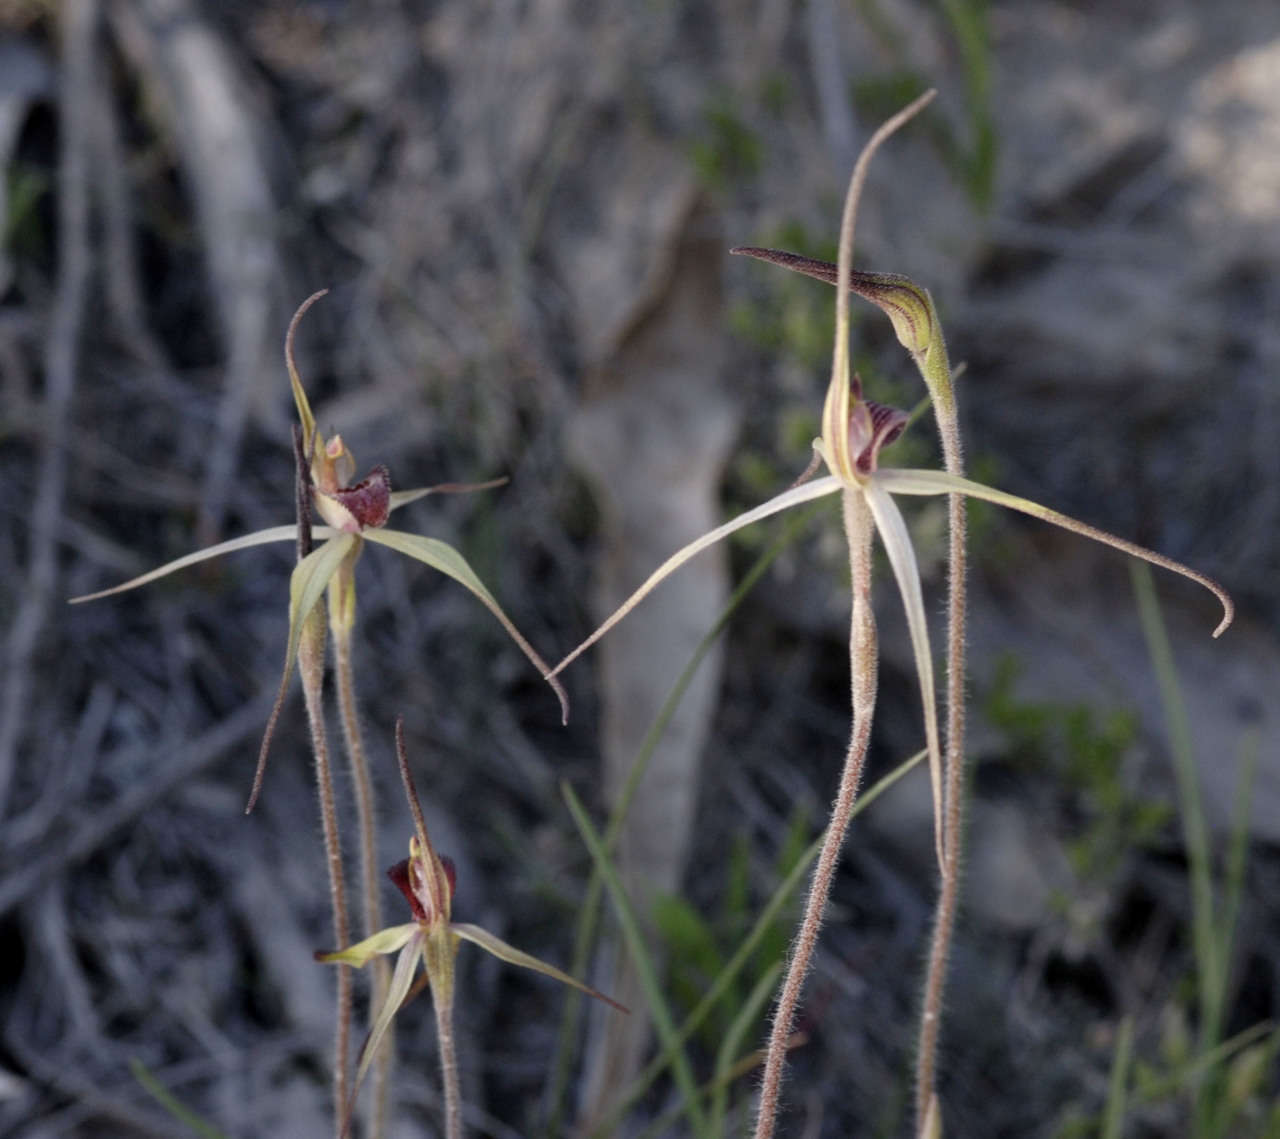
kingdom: Plantae
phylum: Tracheophyta
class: Liliopsida
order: Asparagales
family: Orchidaceae
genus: Caladenia
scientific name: Caladenia oenochila
